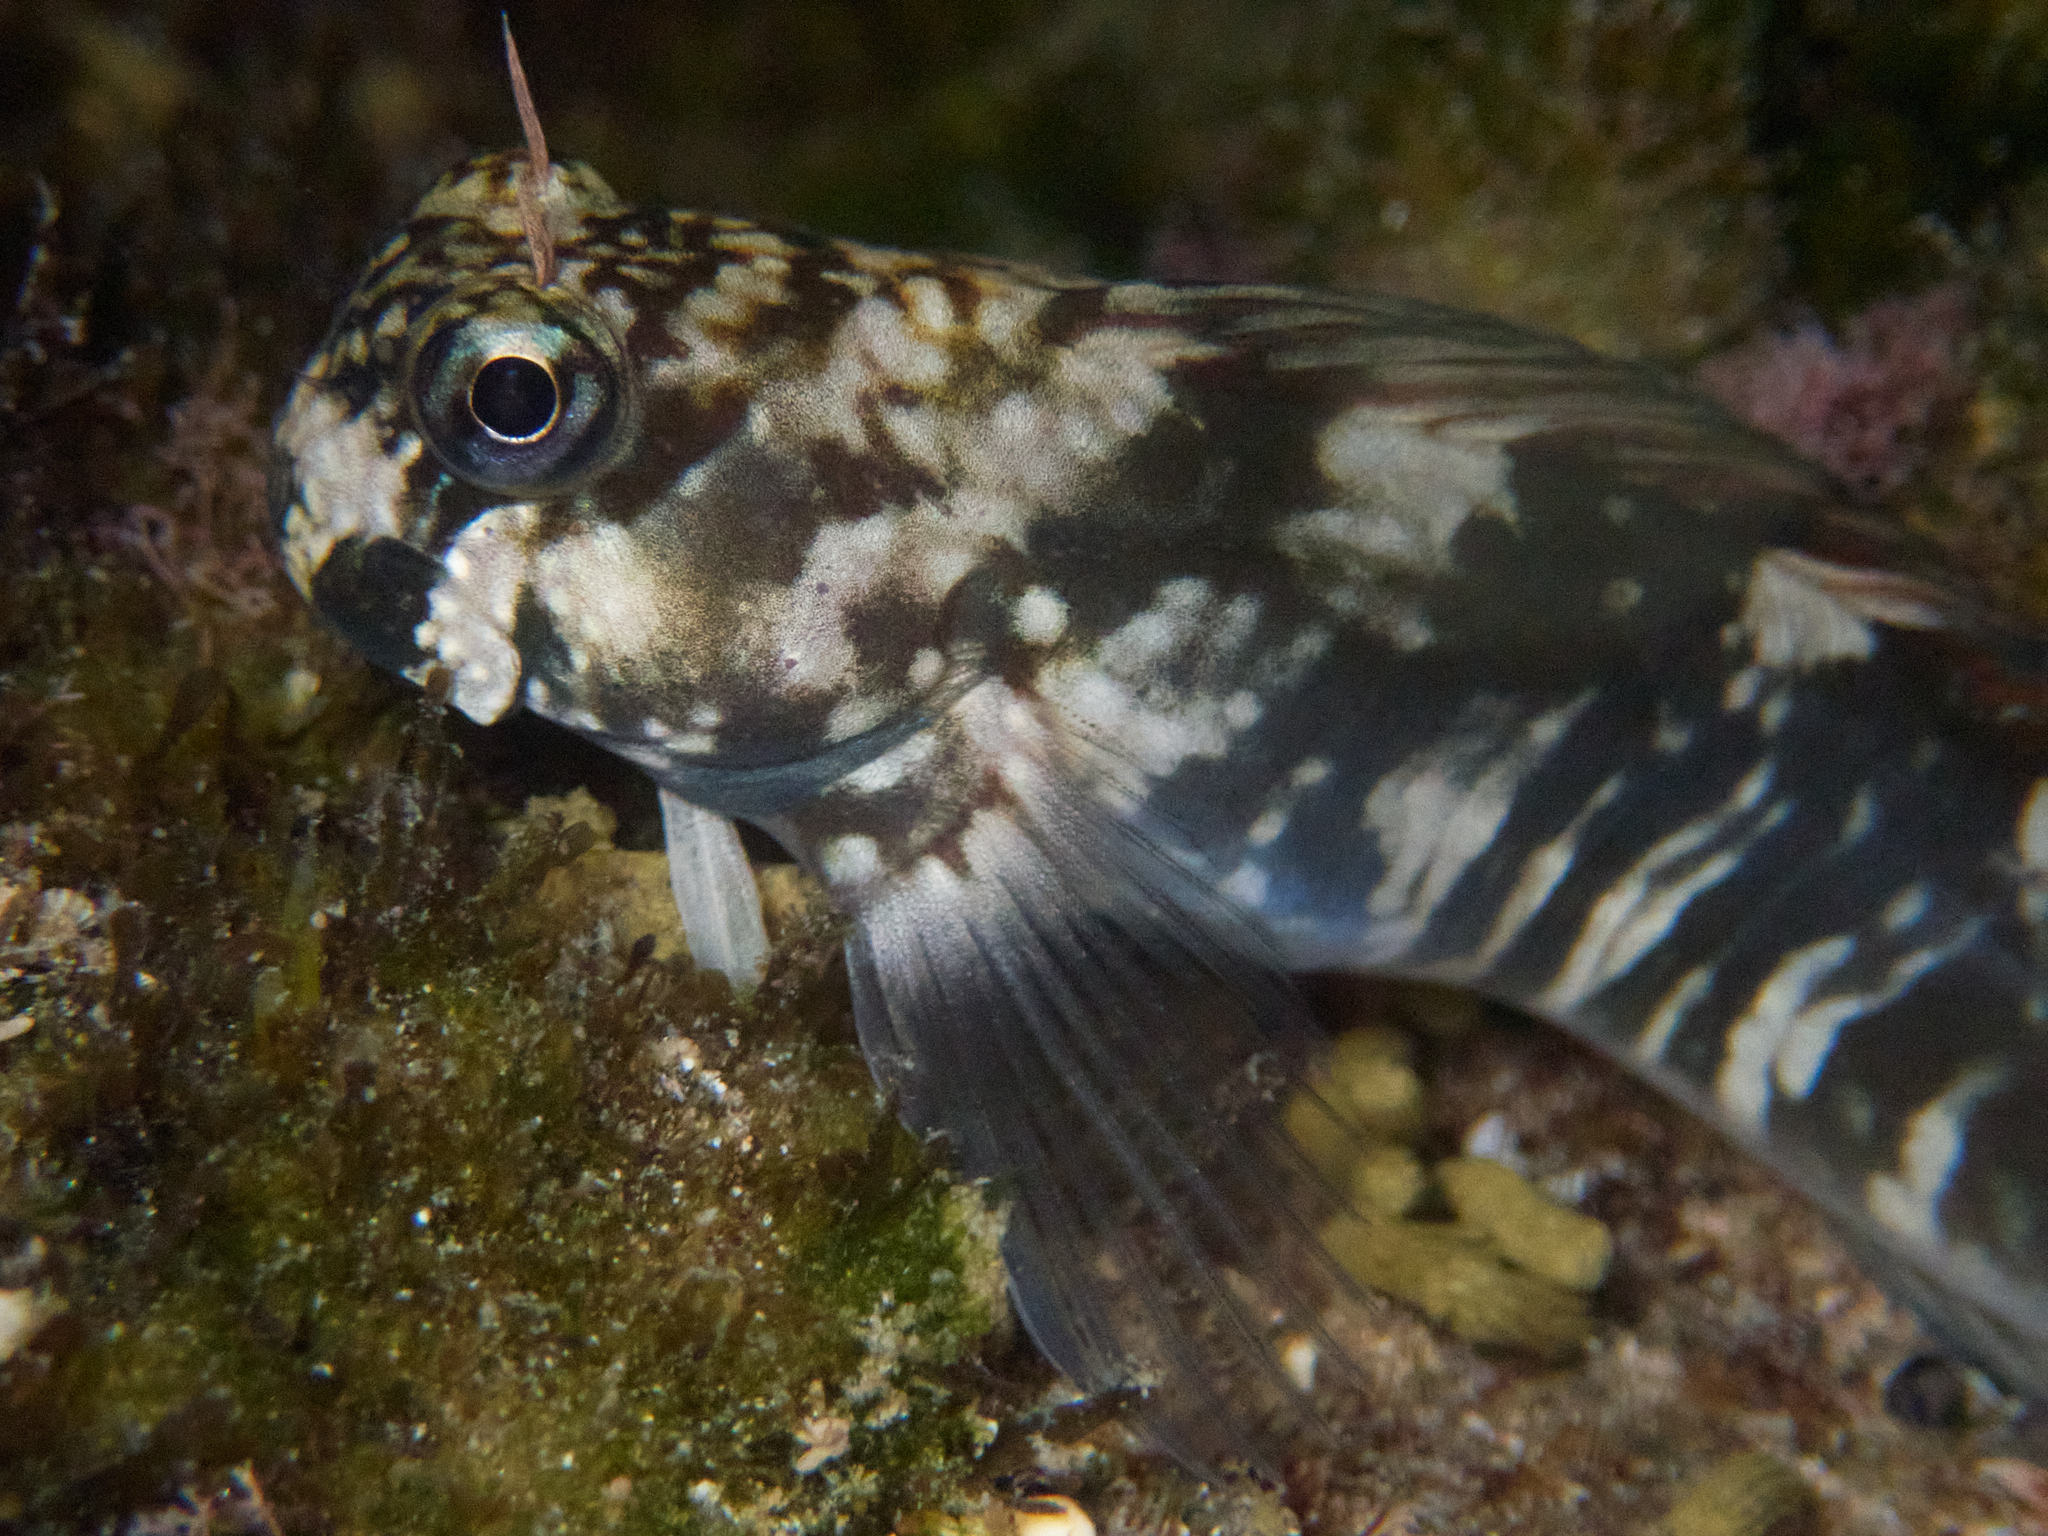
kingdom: Animalia
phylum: Chordata
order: Perciformes
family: Blenniidae
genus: Istiblennius
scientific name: Istiblennius zebra
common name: Zebra blenny
